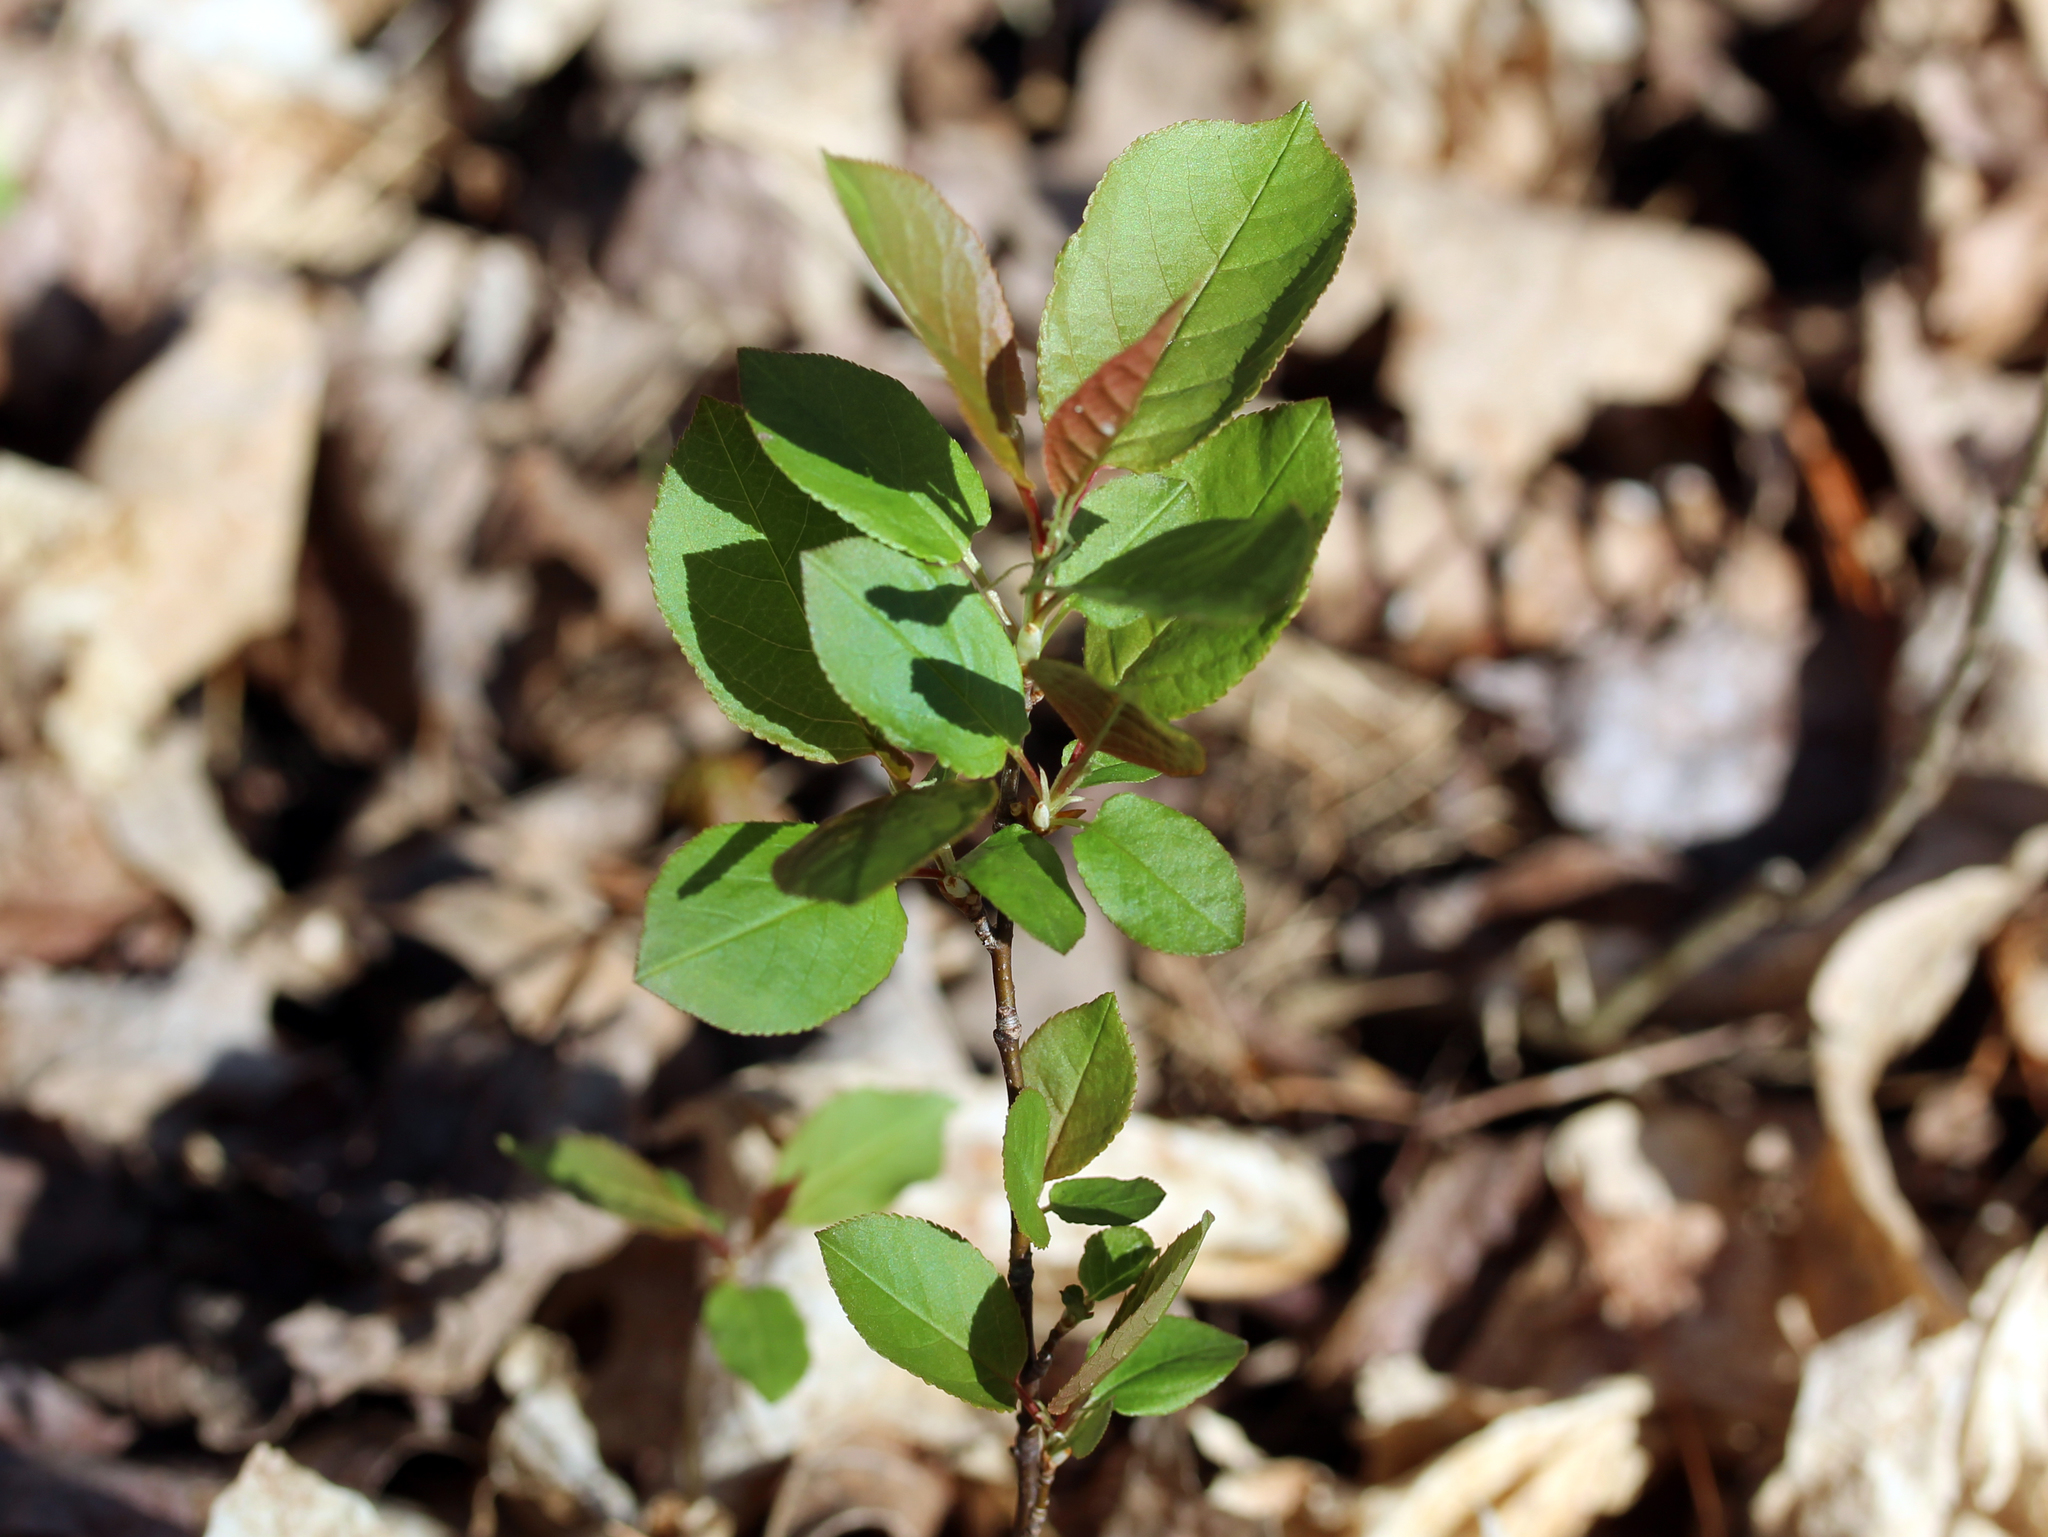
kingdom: Plantae
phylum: Tracheophyta
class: Magnoliopsida
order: Rosales
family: Rosaceae
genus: Prunus
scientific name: Prunus virginiana
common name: Chokecherry
